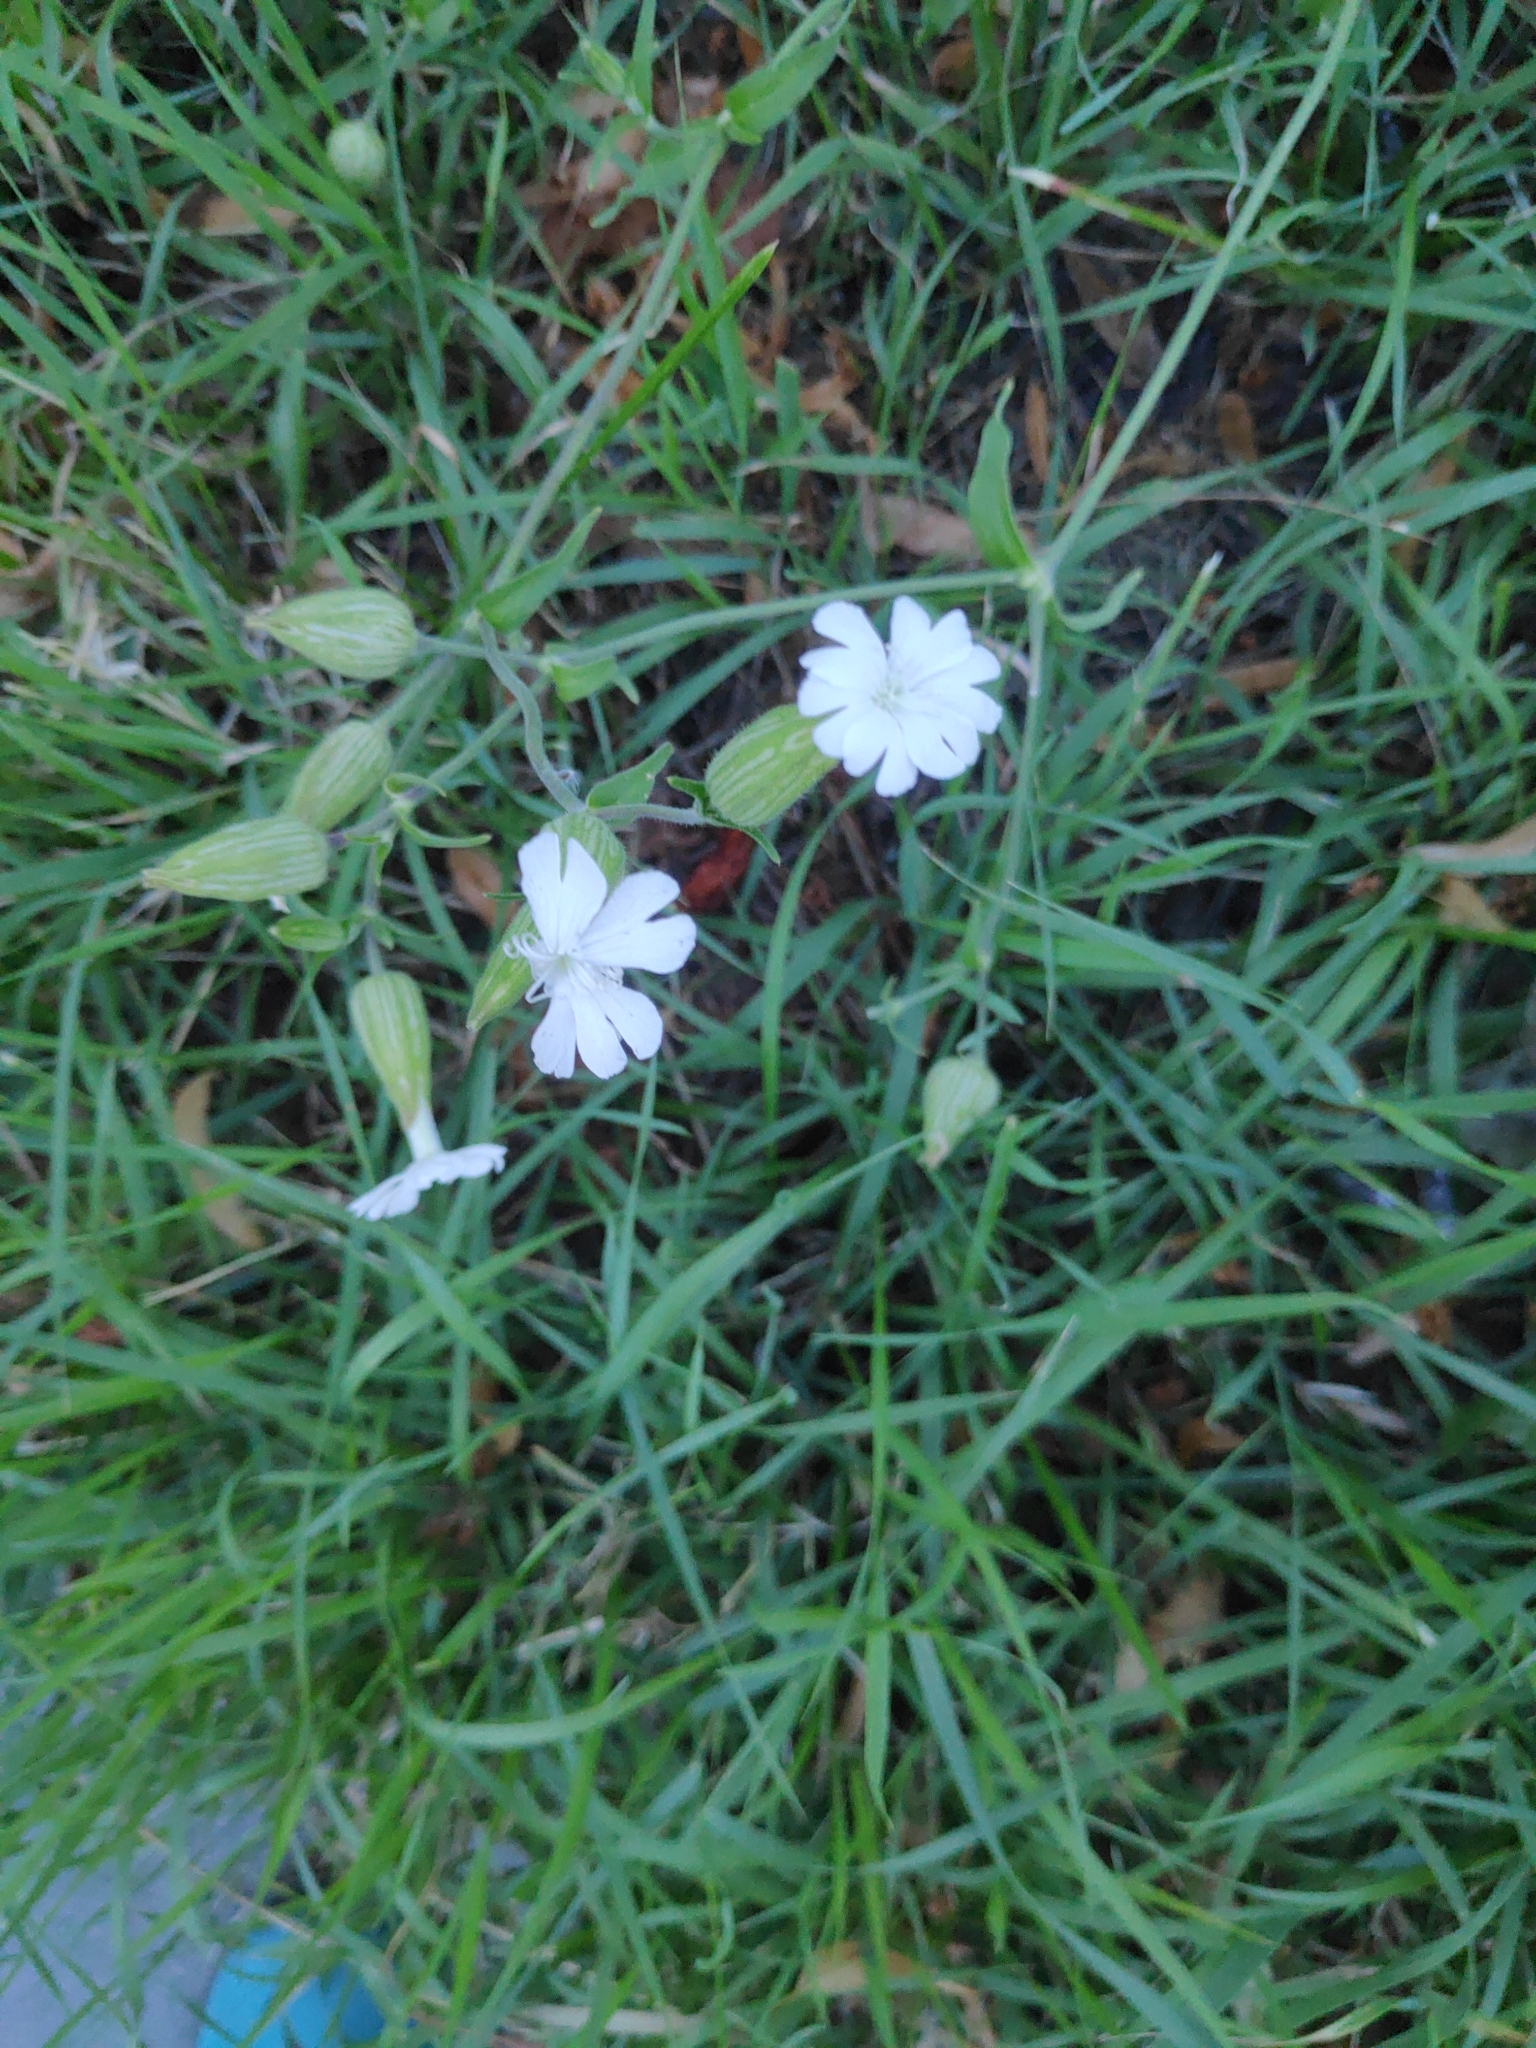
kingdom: Plantae
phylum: Tracheophyta
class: Magnoliopsida
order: Caryophyllales
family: Caryophyllaceae
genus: Silene
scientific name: Silene latifolia
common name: White campion
